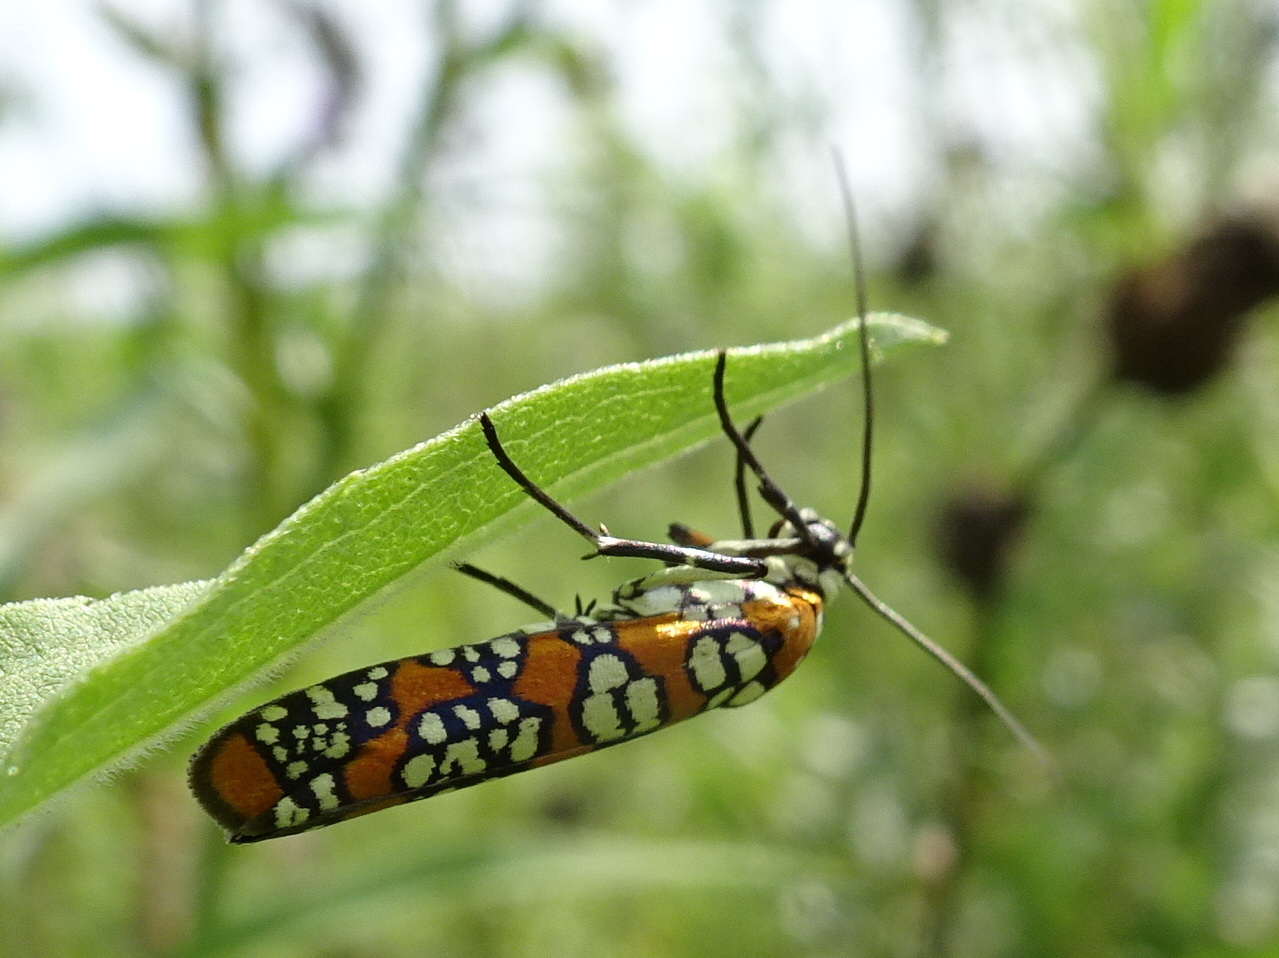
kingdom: Animalia
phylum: Arthropoda
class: Insecta
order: Lepidoptera
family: Attevidae
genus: Atteva
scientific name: Atteva punctella
